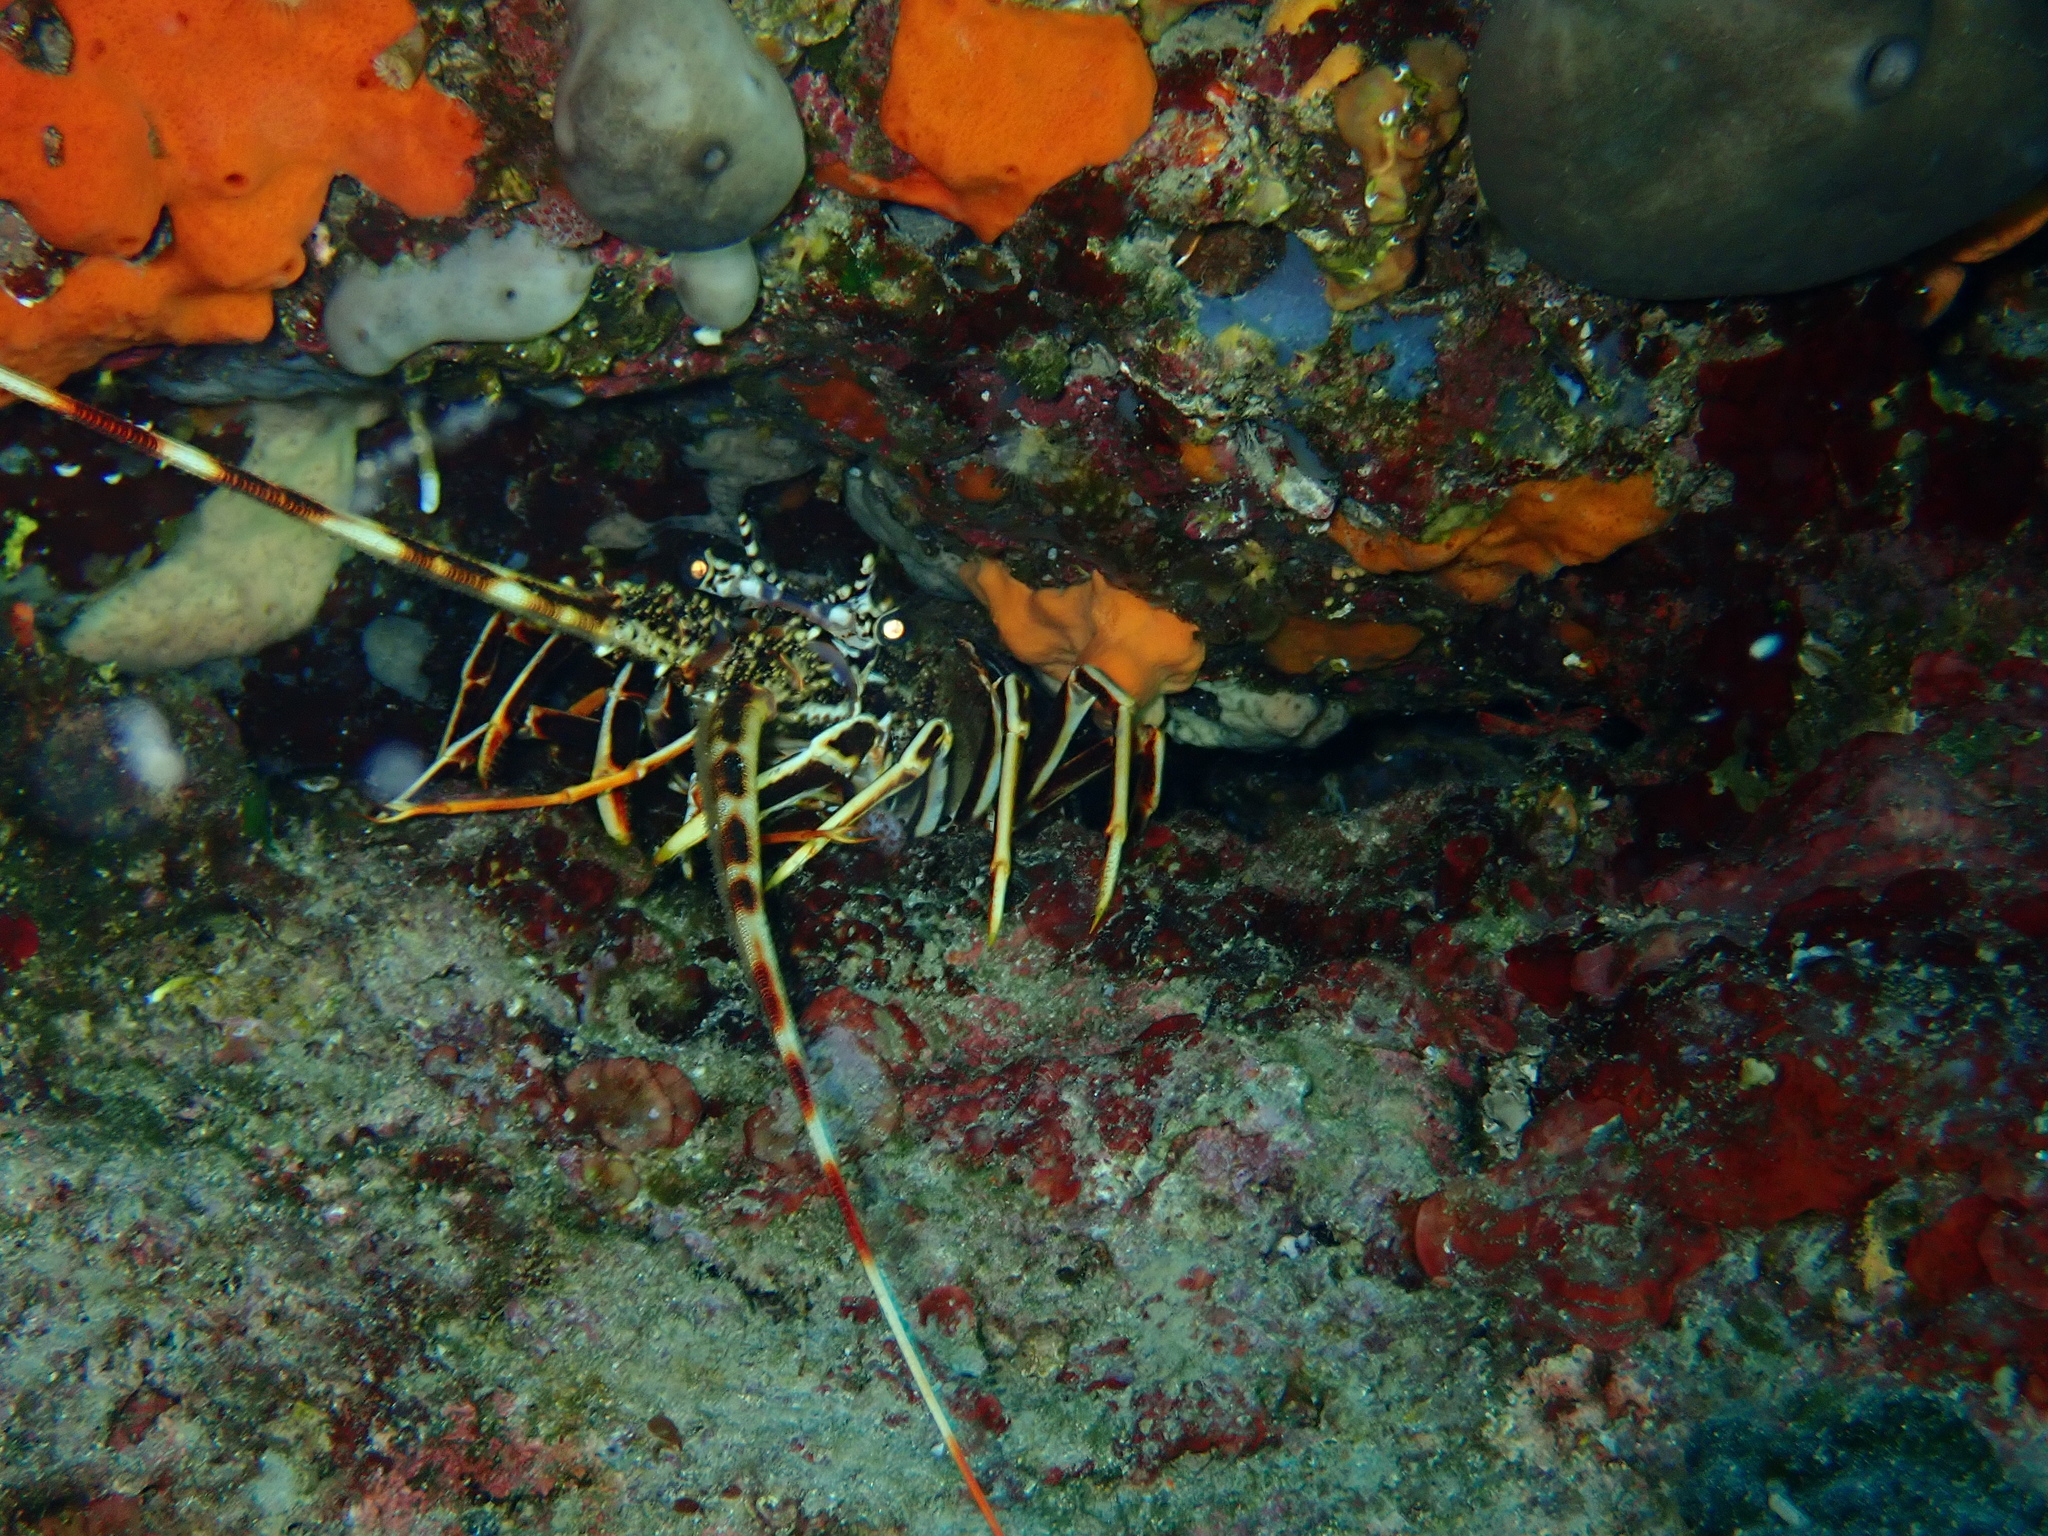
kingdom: Animalia
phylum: Arthropoda
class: Malacostraca
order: Decapoda
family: Palinuridae
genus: Palinurus
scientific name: Palinurus elephas
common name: European spiny lobster
